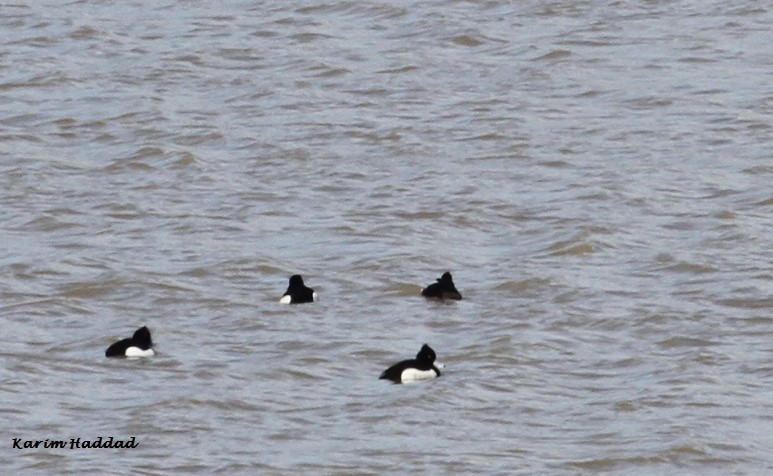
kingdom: Animalia
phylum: Chordata
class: Aves
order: Anseriformes
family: Anatidae
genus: Aythya
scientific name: Aythya fuligula
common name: Tufted duck
